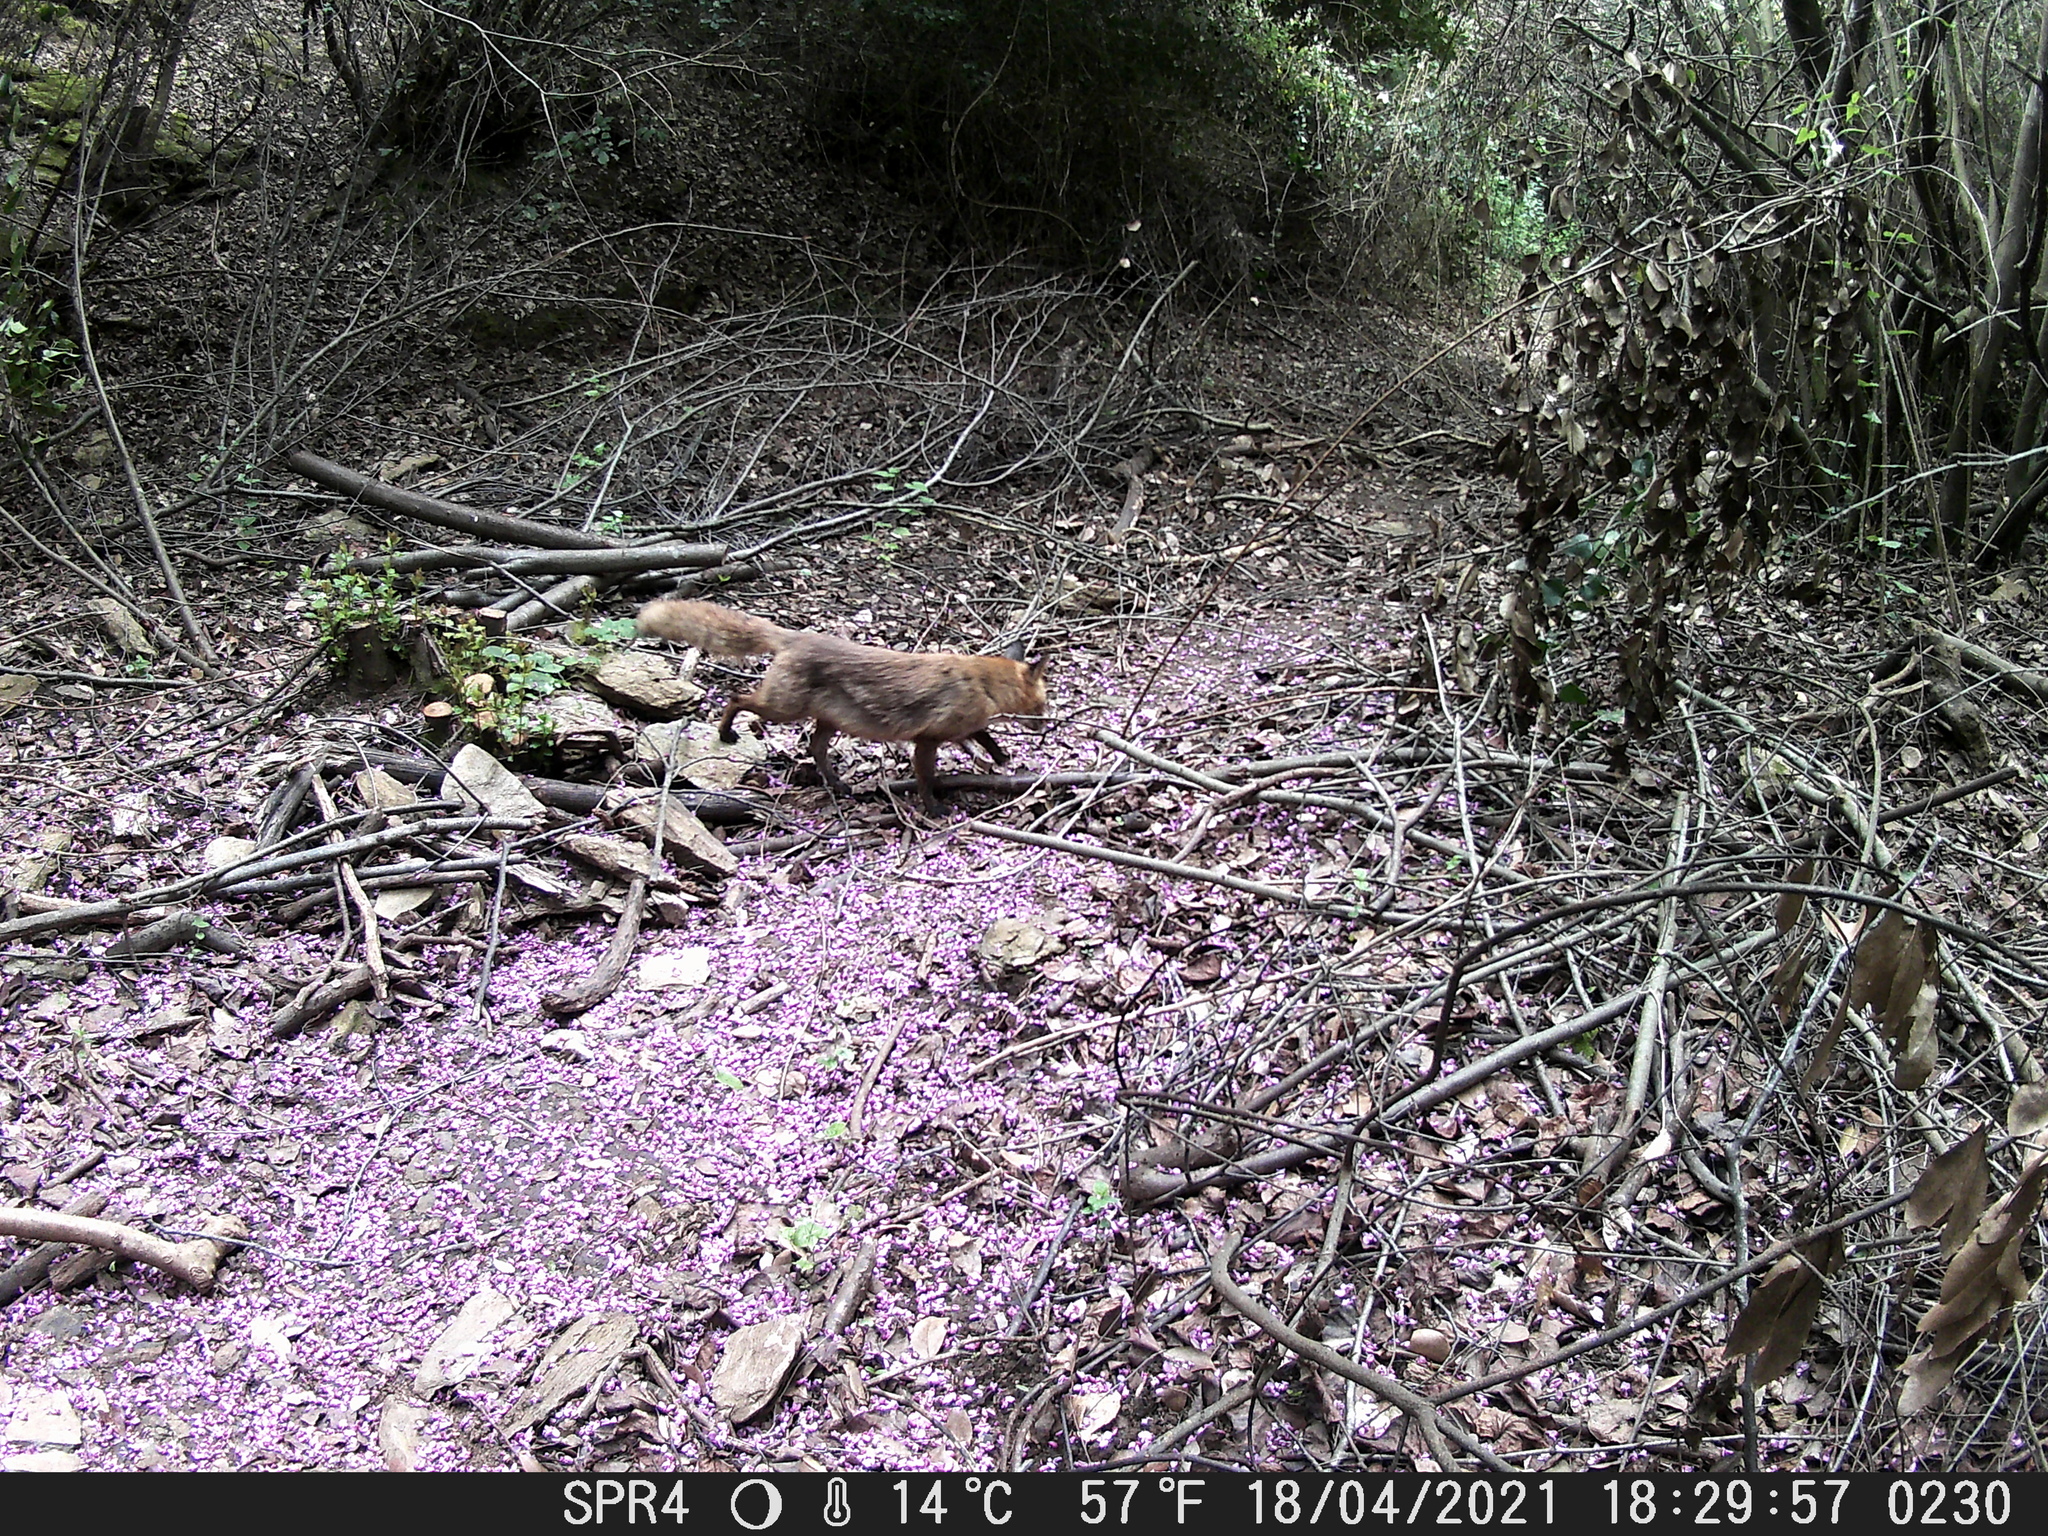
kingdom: Animalia
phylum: Chordata
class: Mammalia
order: Carnivora
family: Canidae
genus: Vulpes
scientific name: Vulpes vulpes
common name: Red fox
